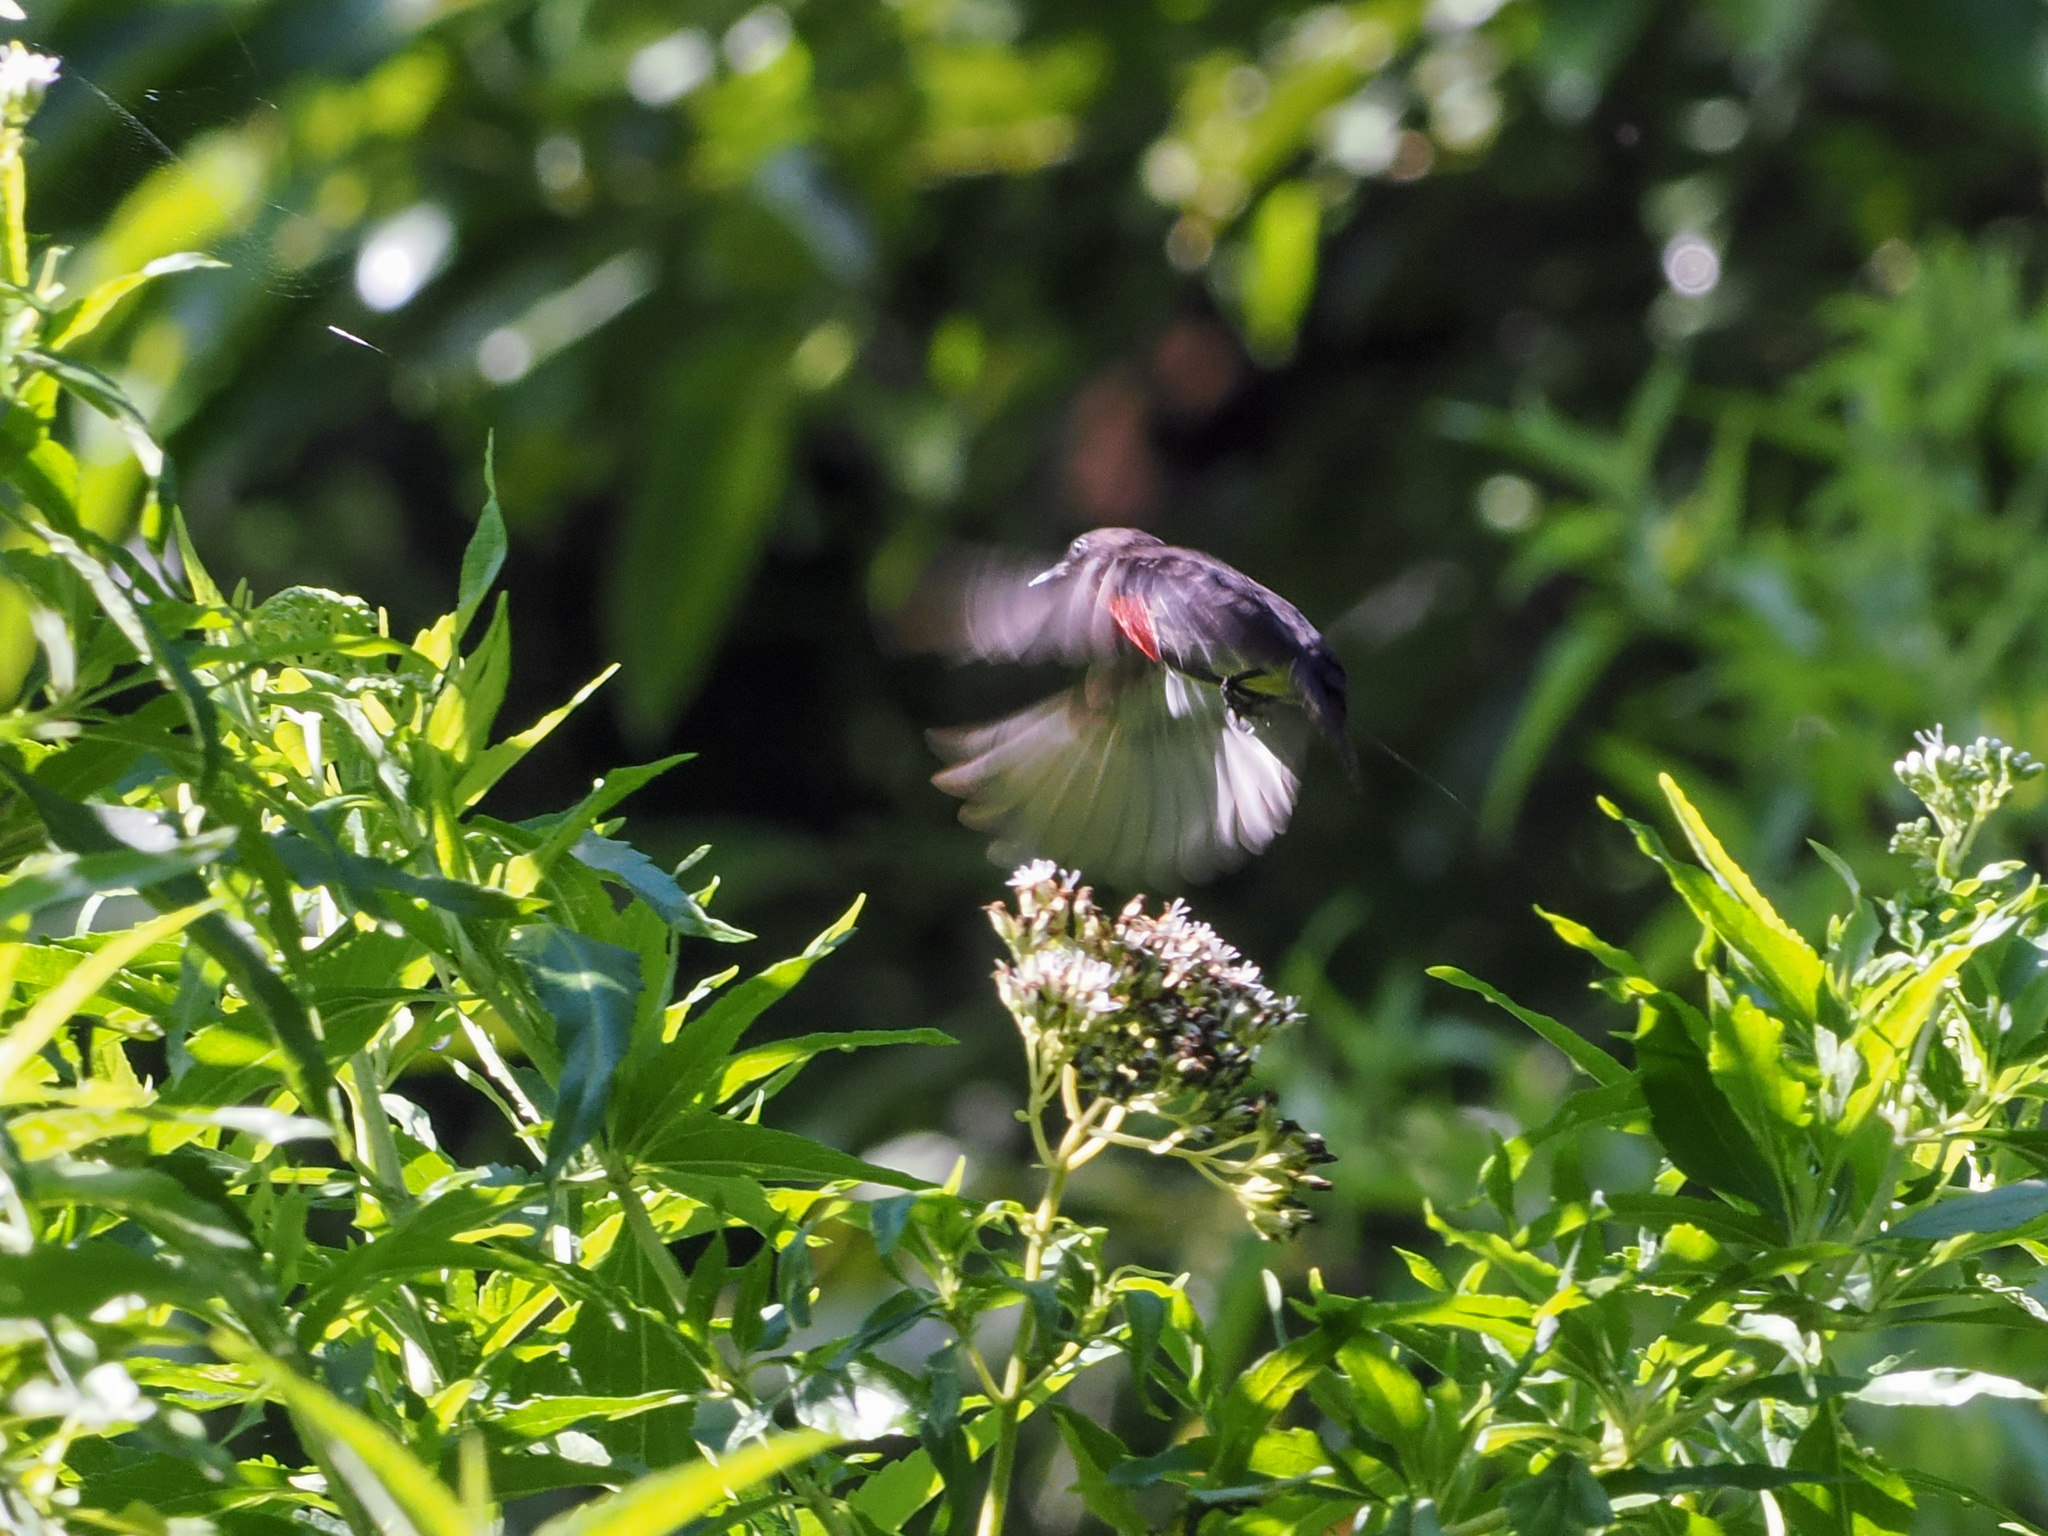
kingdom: Animalia
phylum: Chordata
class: Aves
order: Passeriformes
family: Dicaeidae
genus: Dicaeum
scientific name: Dicaeum celebicum
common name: Grey-sided flowerpecker
